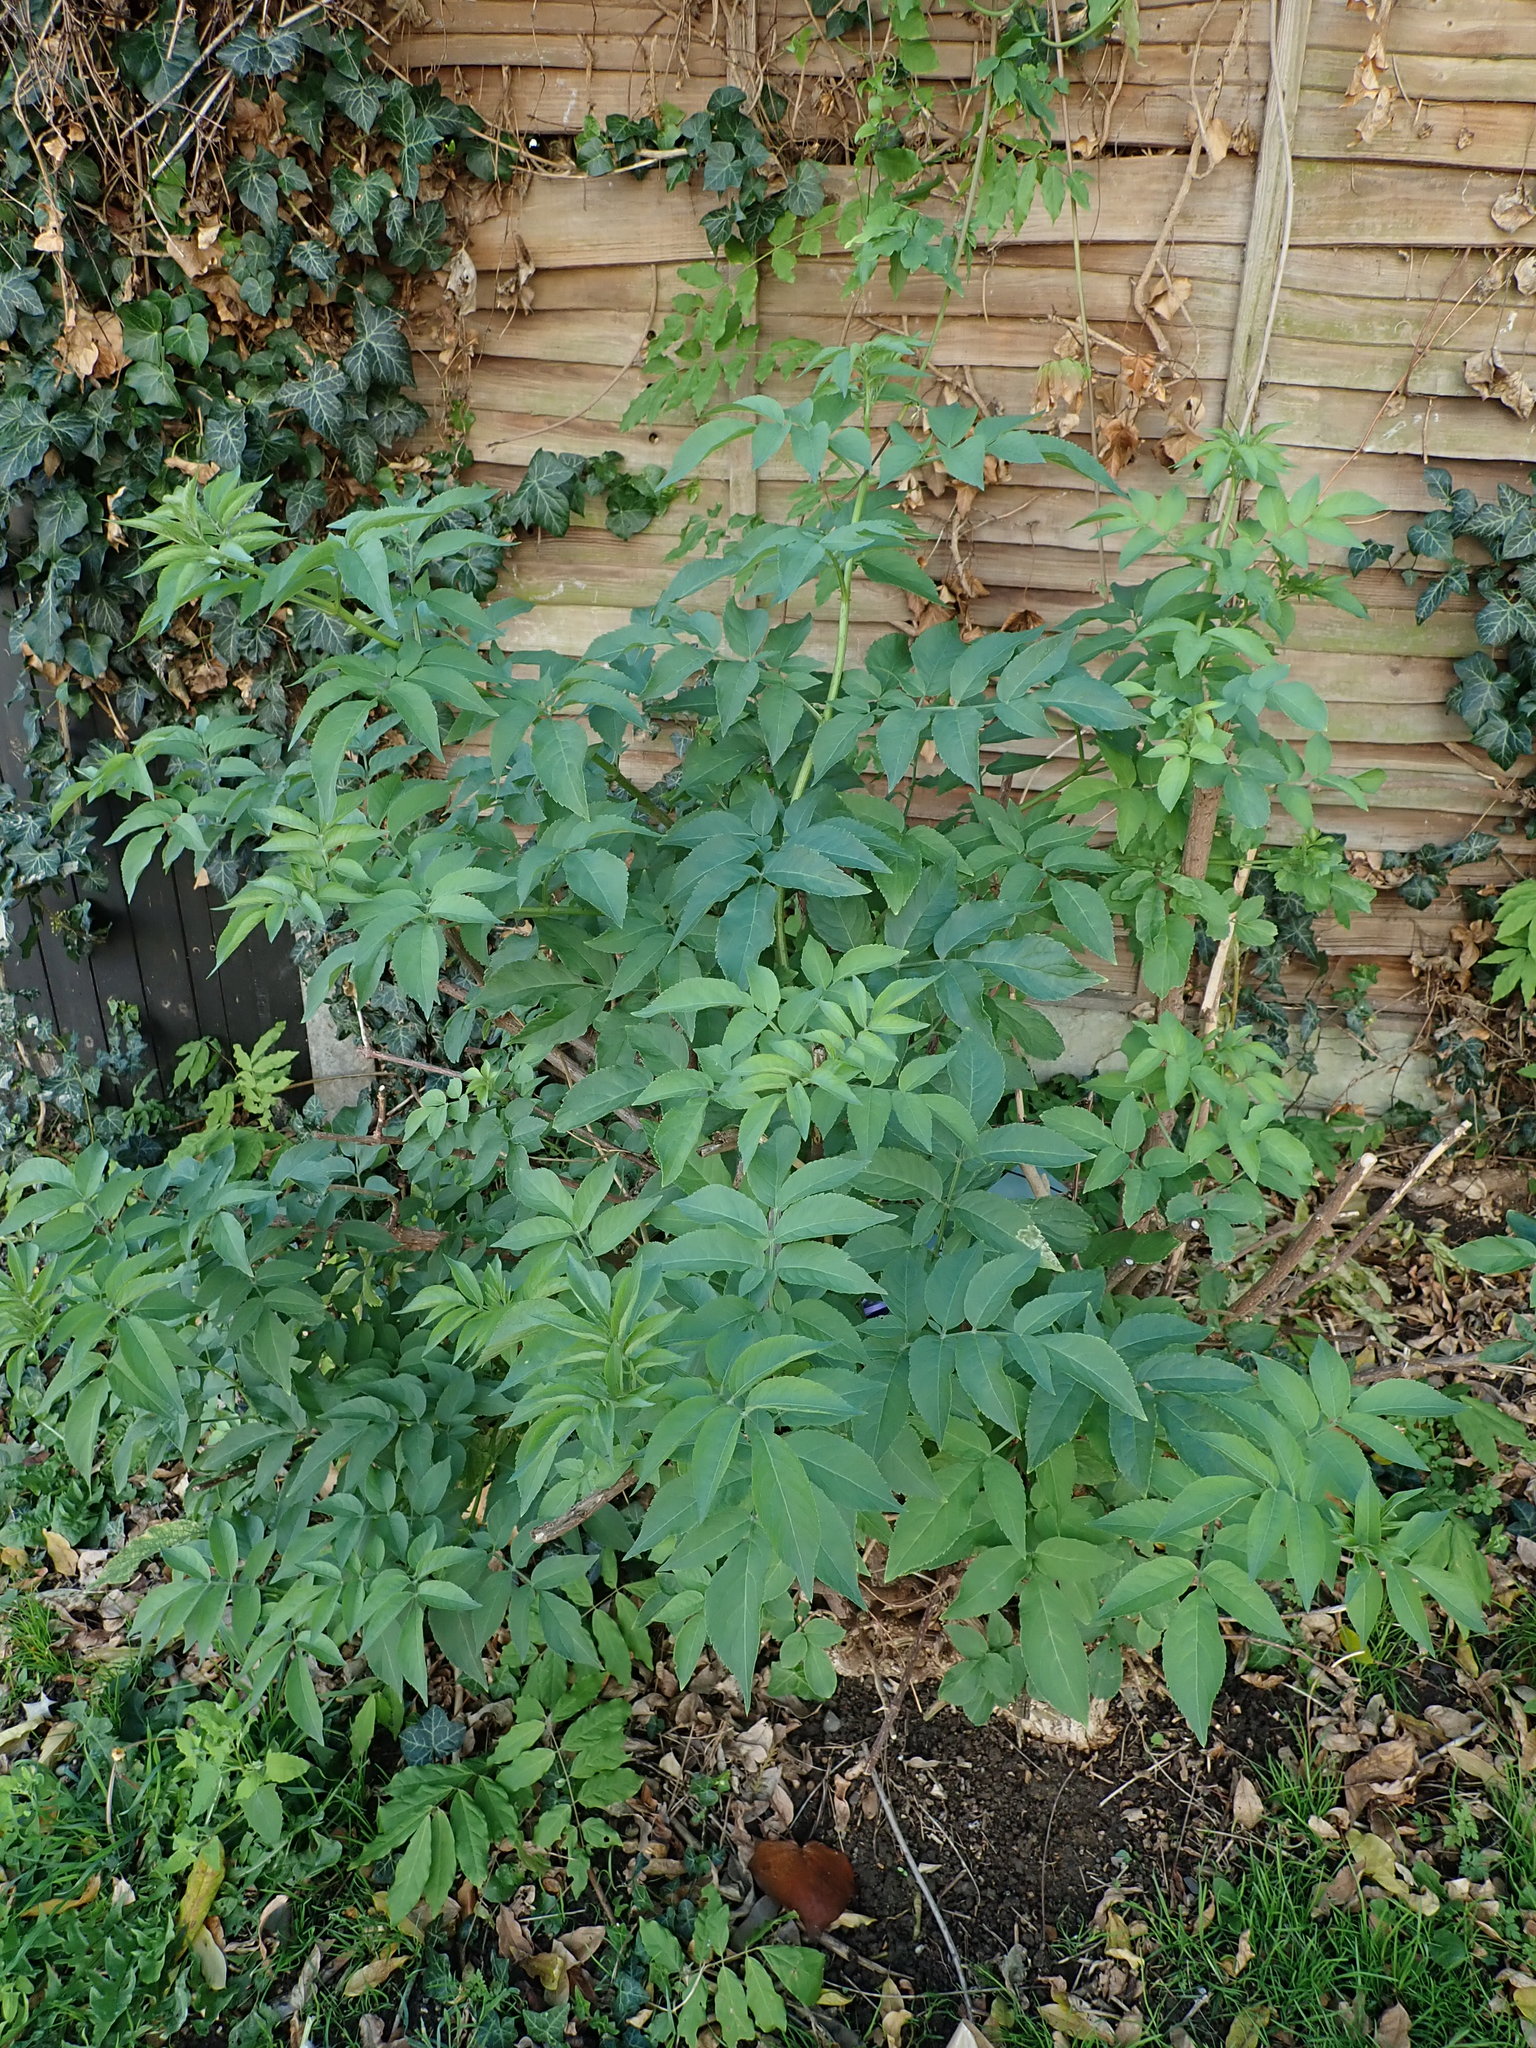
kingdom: Plantae
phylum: Tracheophyta
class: Magnoliopsida
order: Dipsacales
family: Viburnaceae
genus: Sambucus
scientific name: Sambucus nigra
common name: Elder
